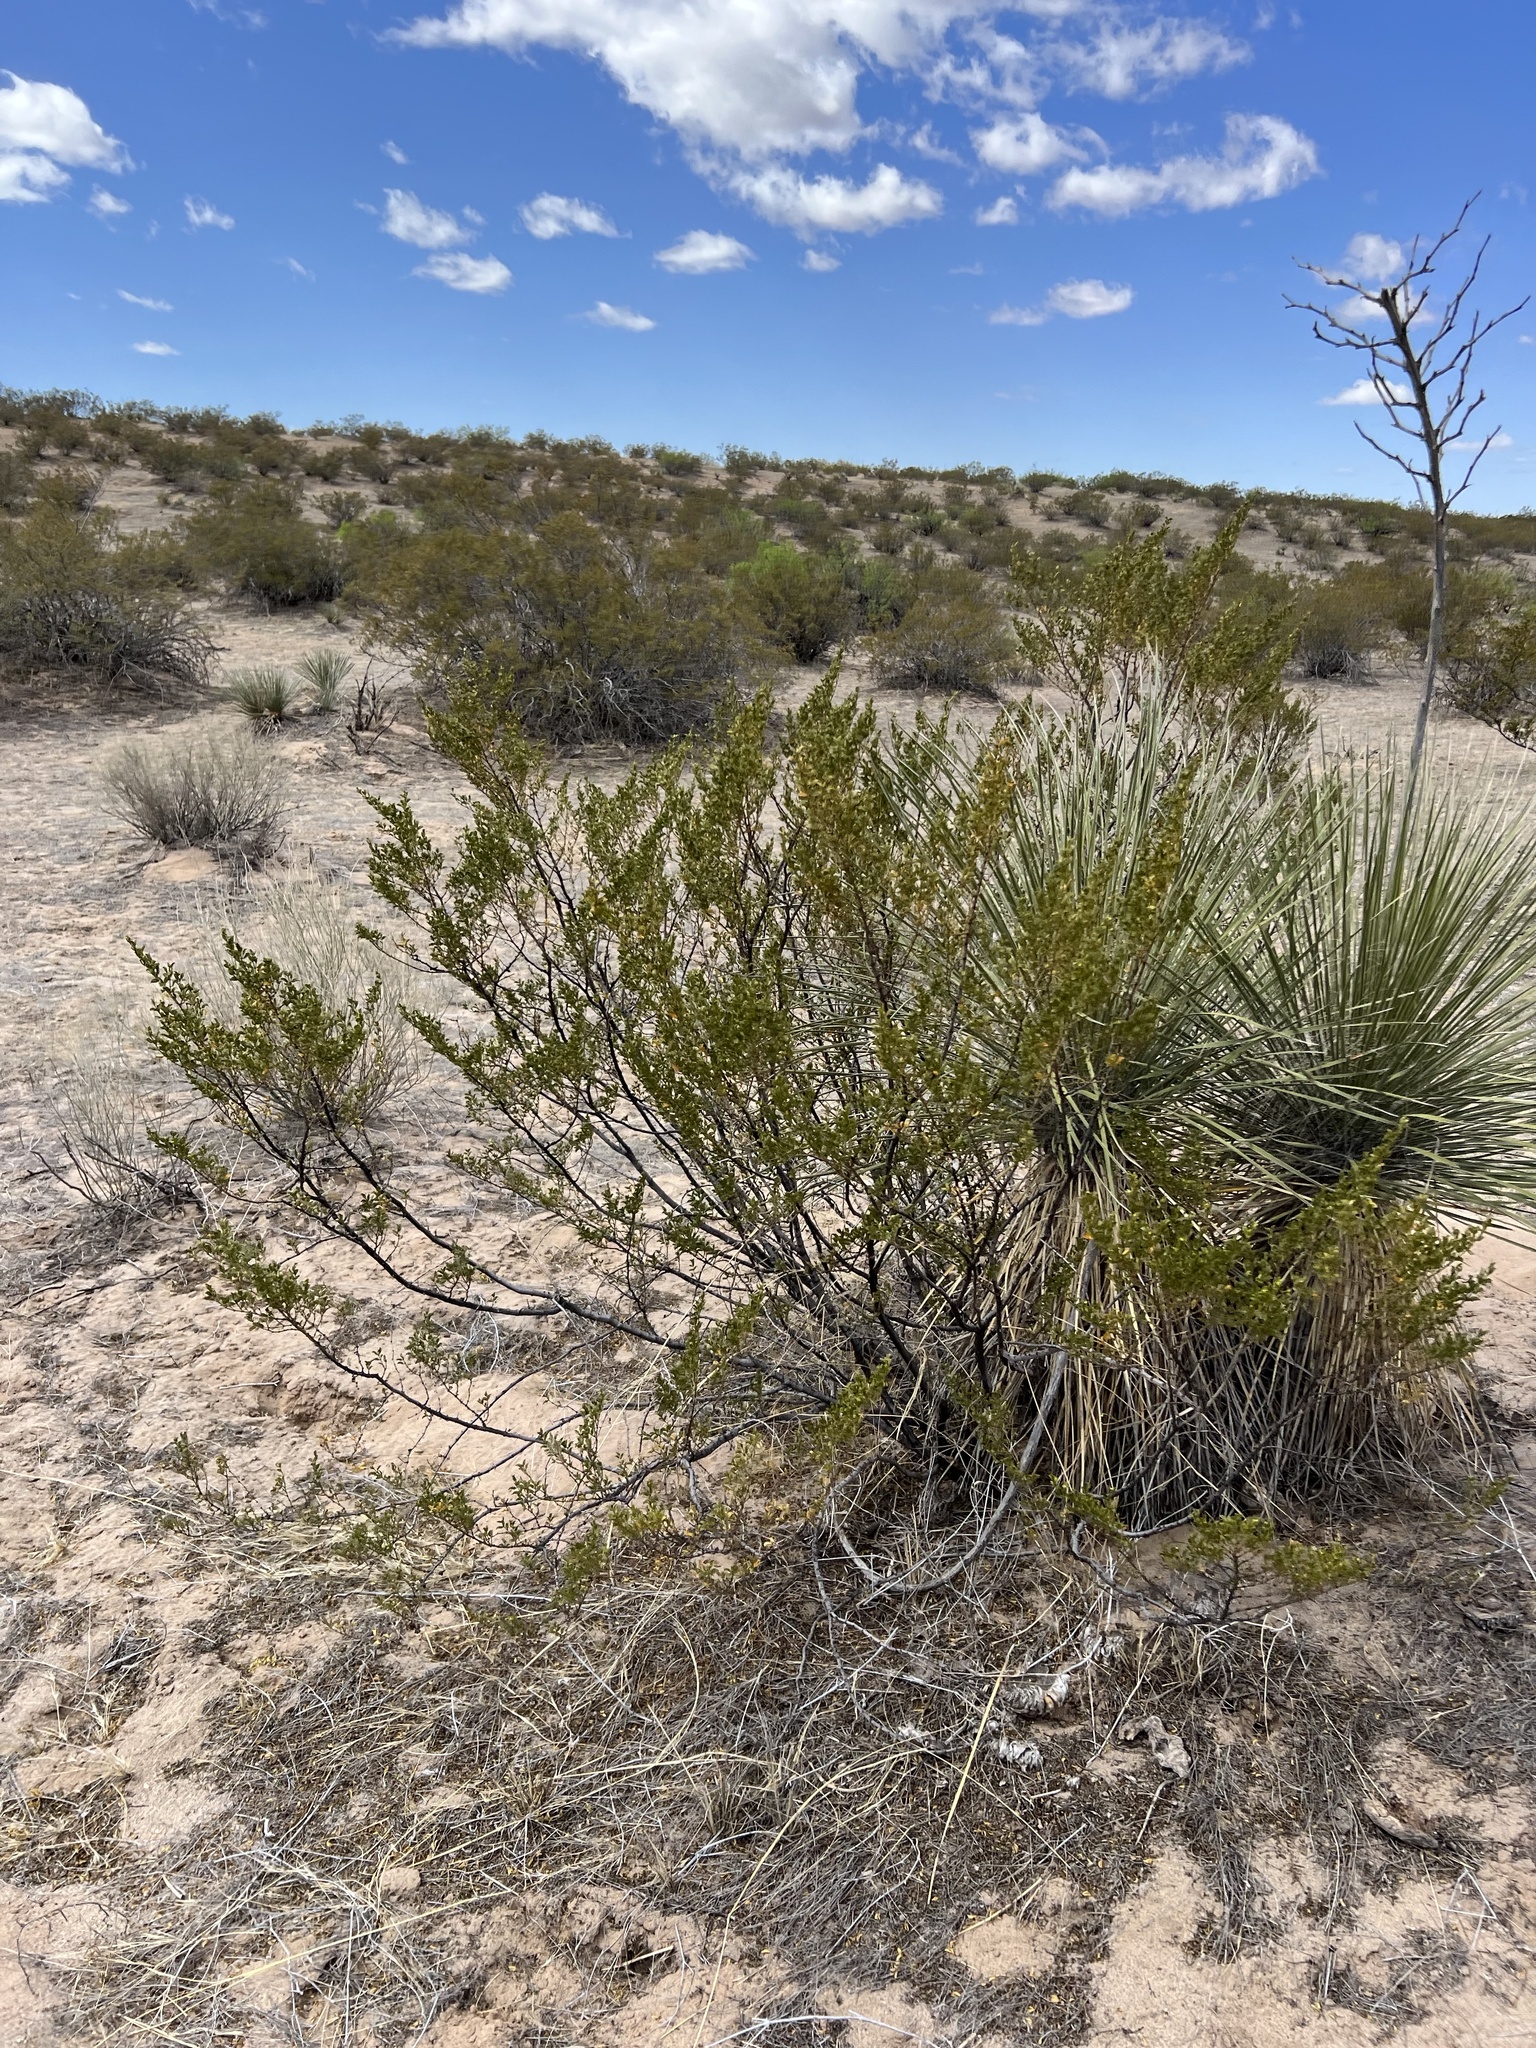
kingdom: Plantae
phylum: Tracheophyta
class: Magnoliopsida
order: Zygophyllales
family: Zygophyllaceae
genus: Larrea
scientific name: Larrea tridentata
